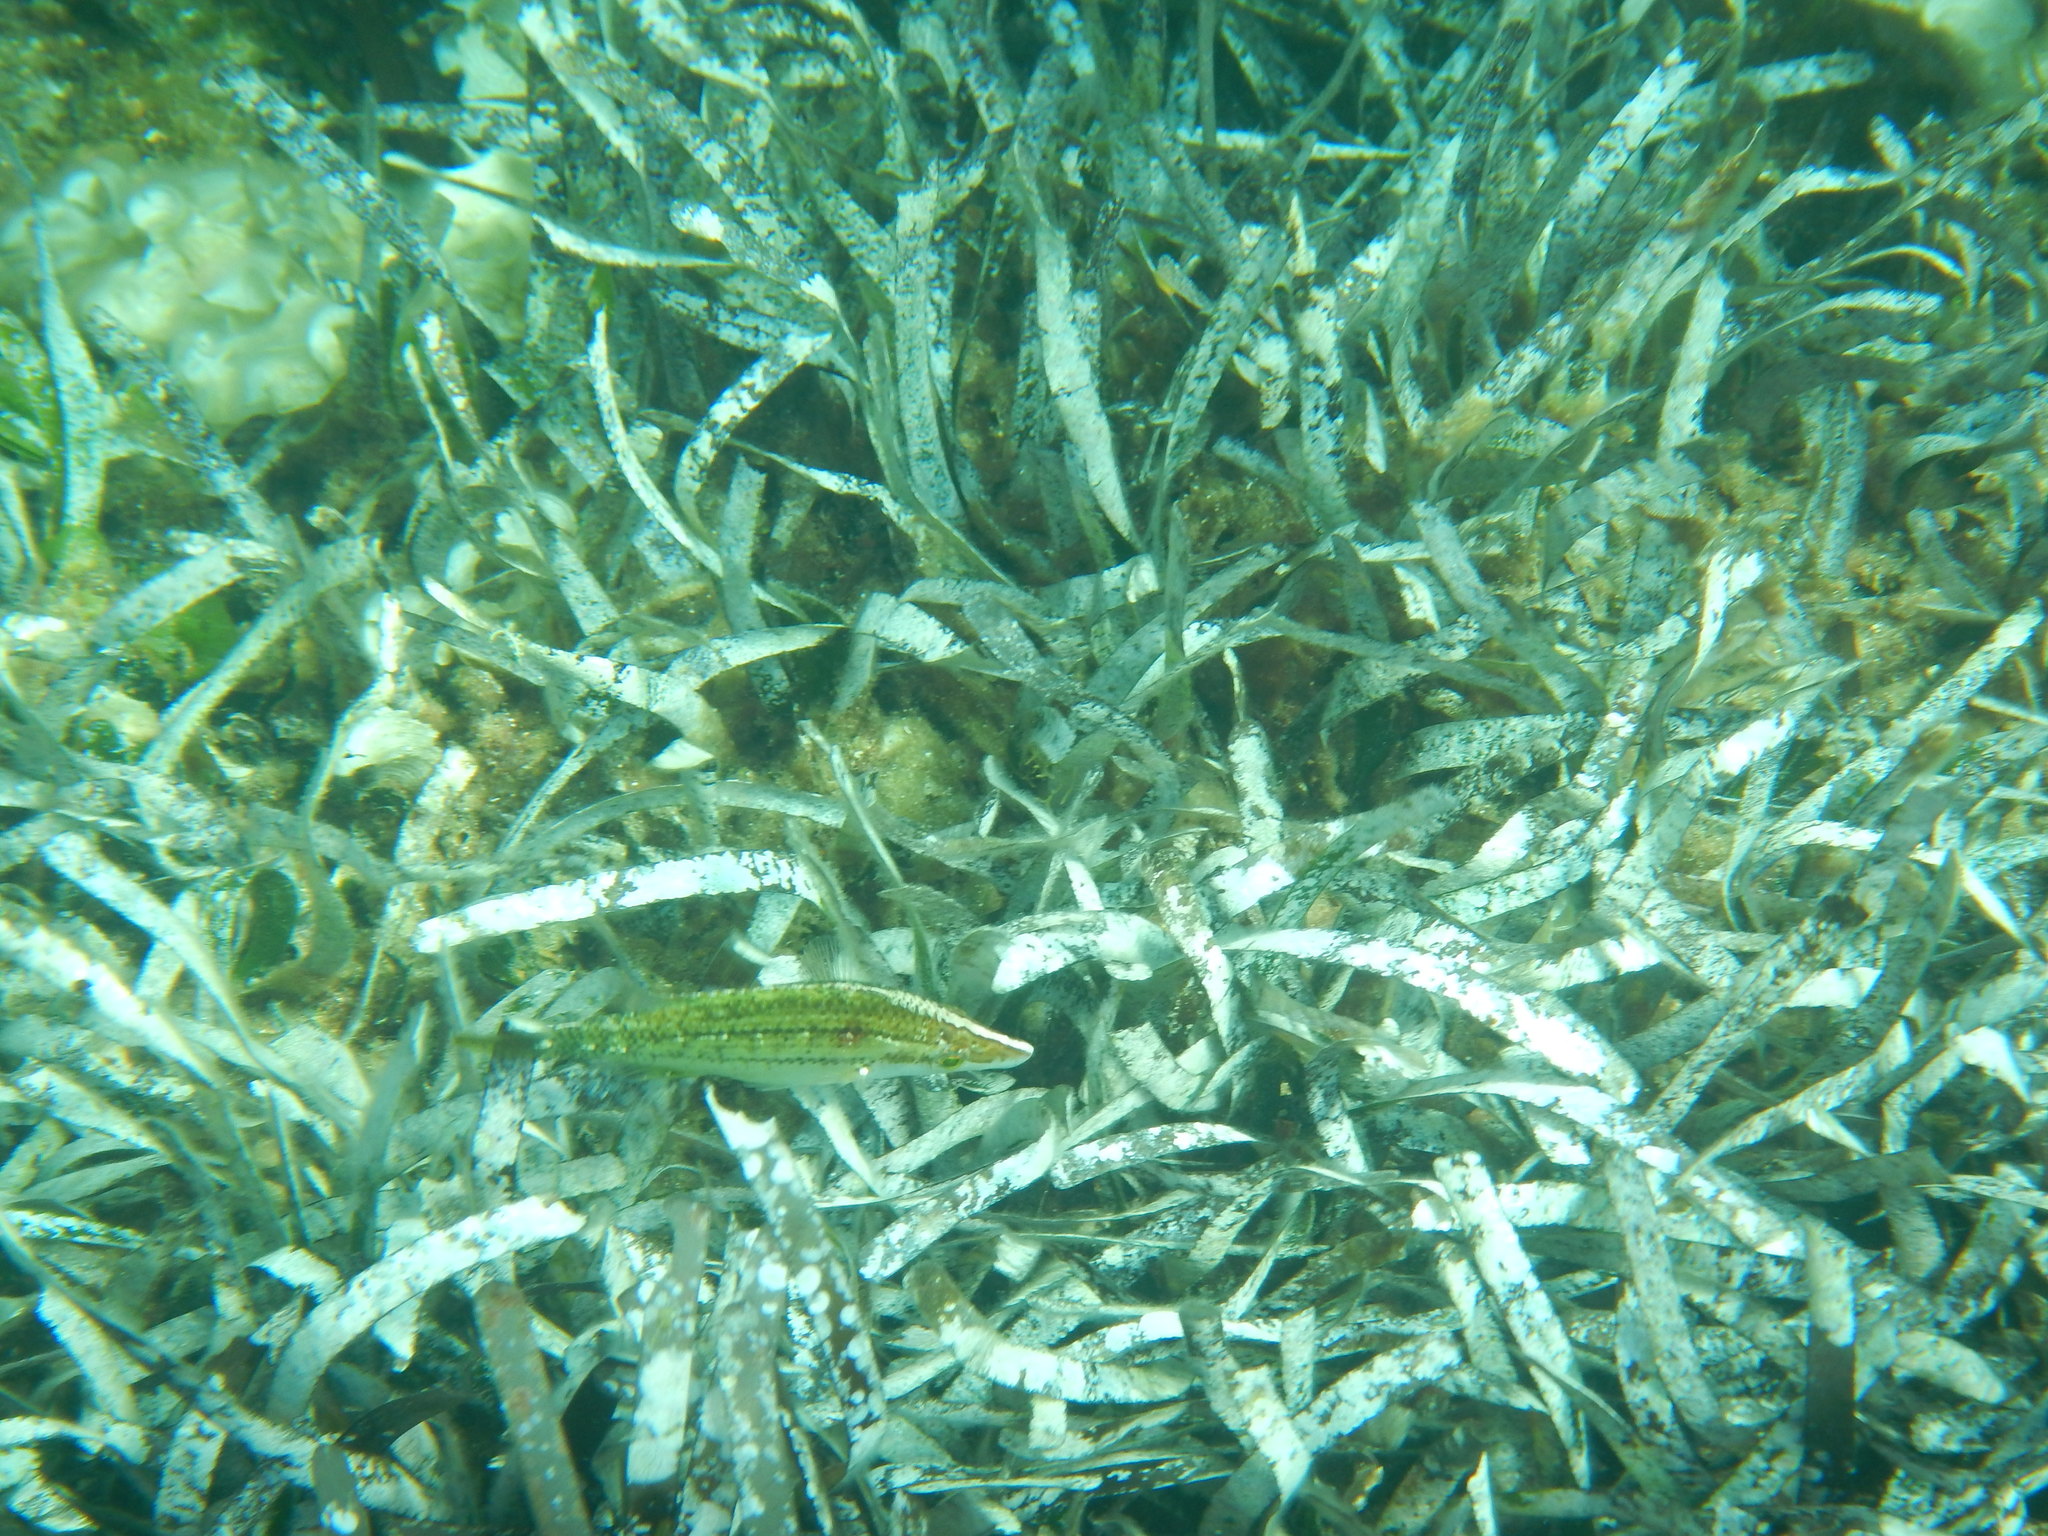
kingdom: Animalia
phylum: Chordata
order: Perciformes
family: Labridae
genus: Symphodus
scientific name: Symphodus rostratus
